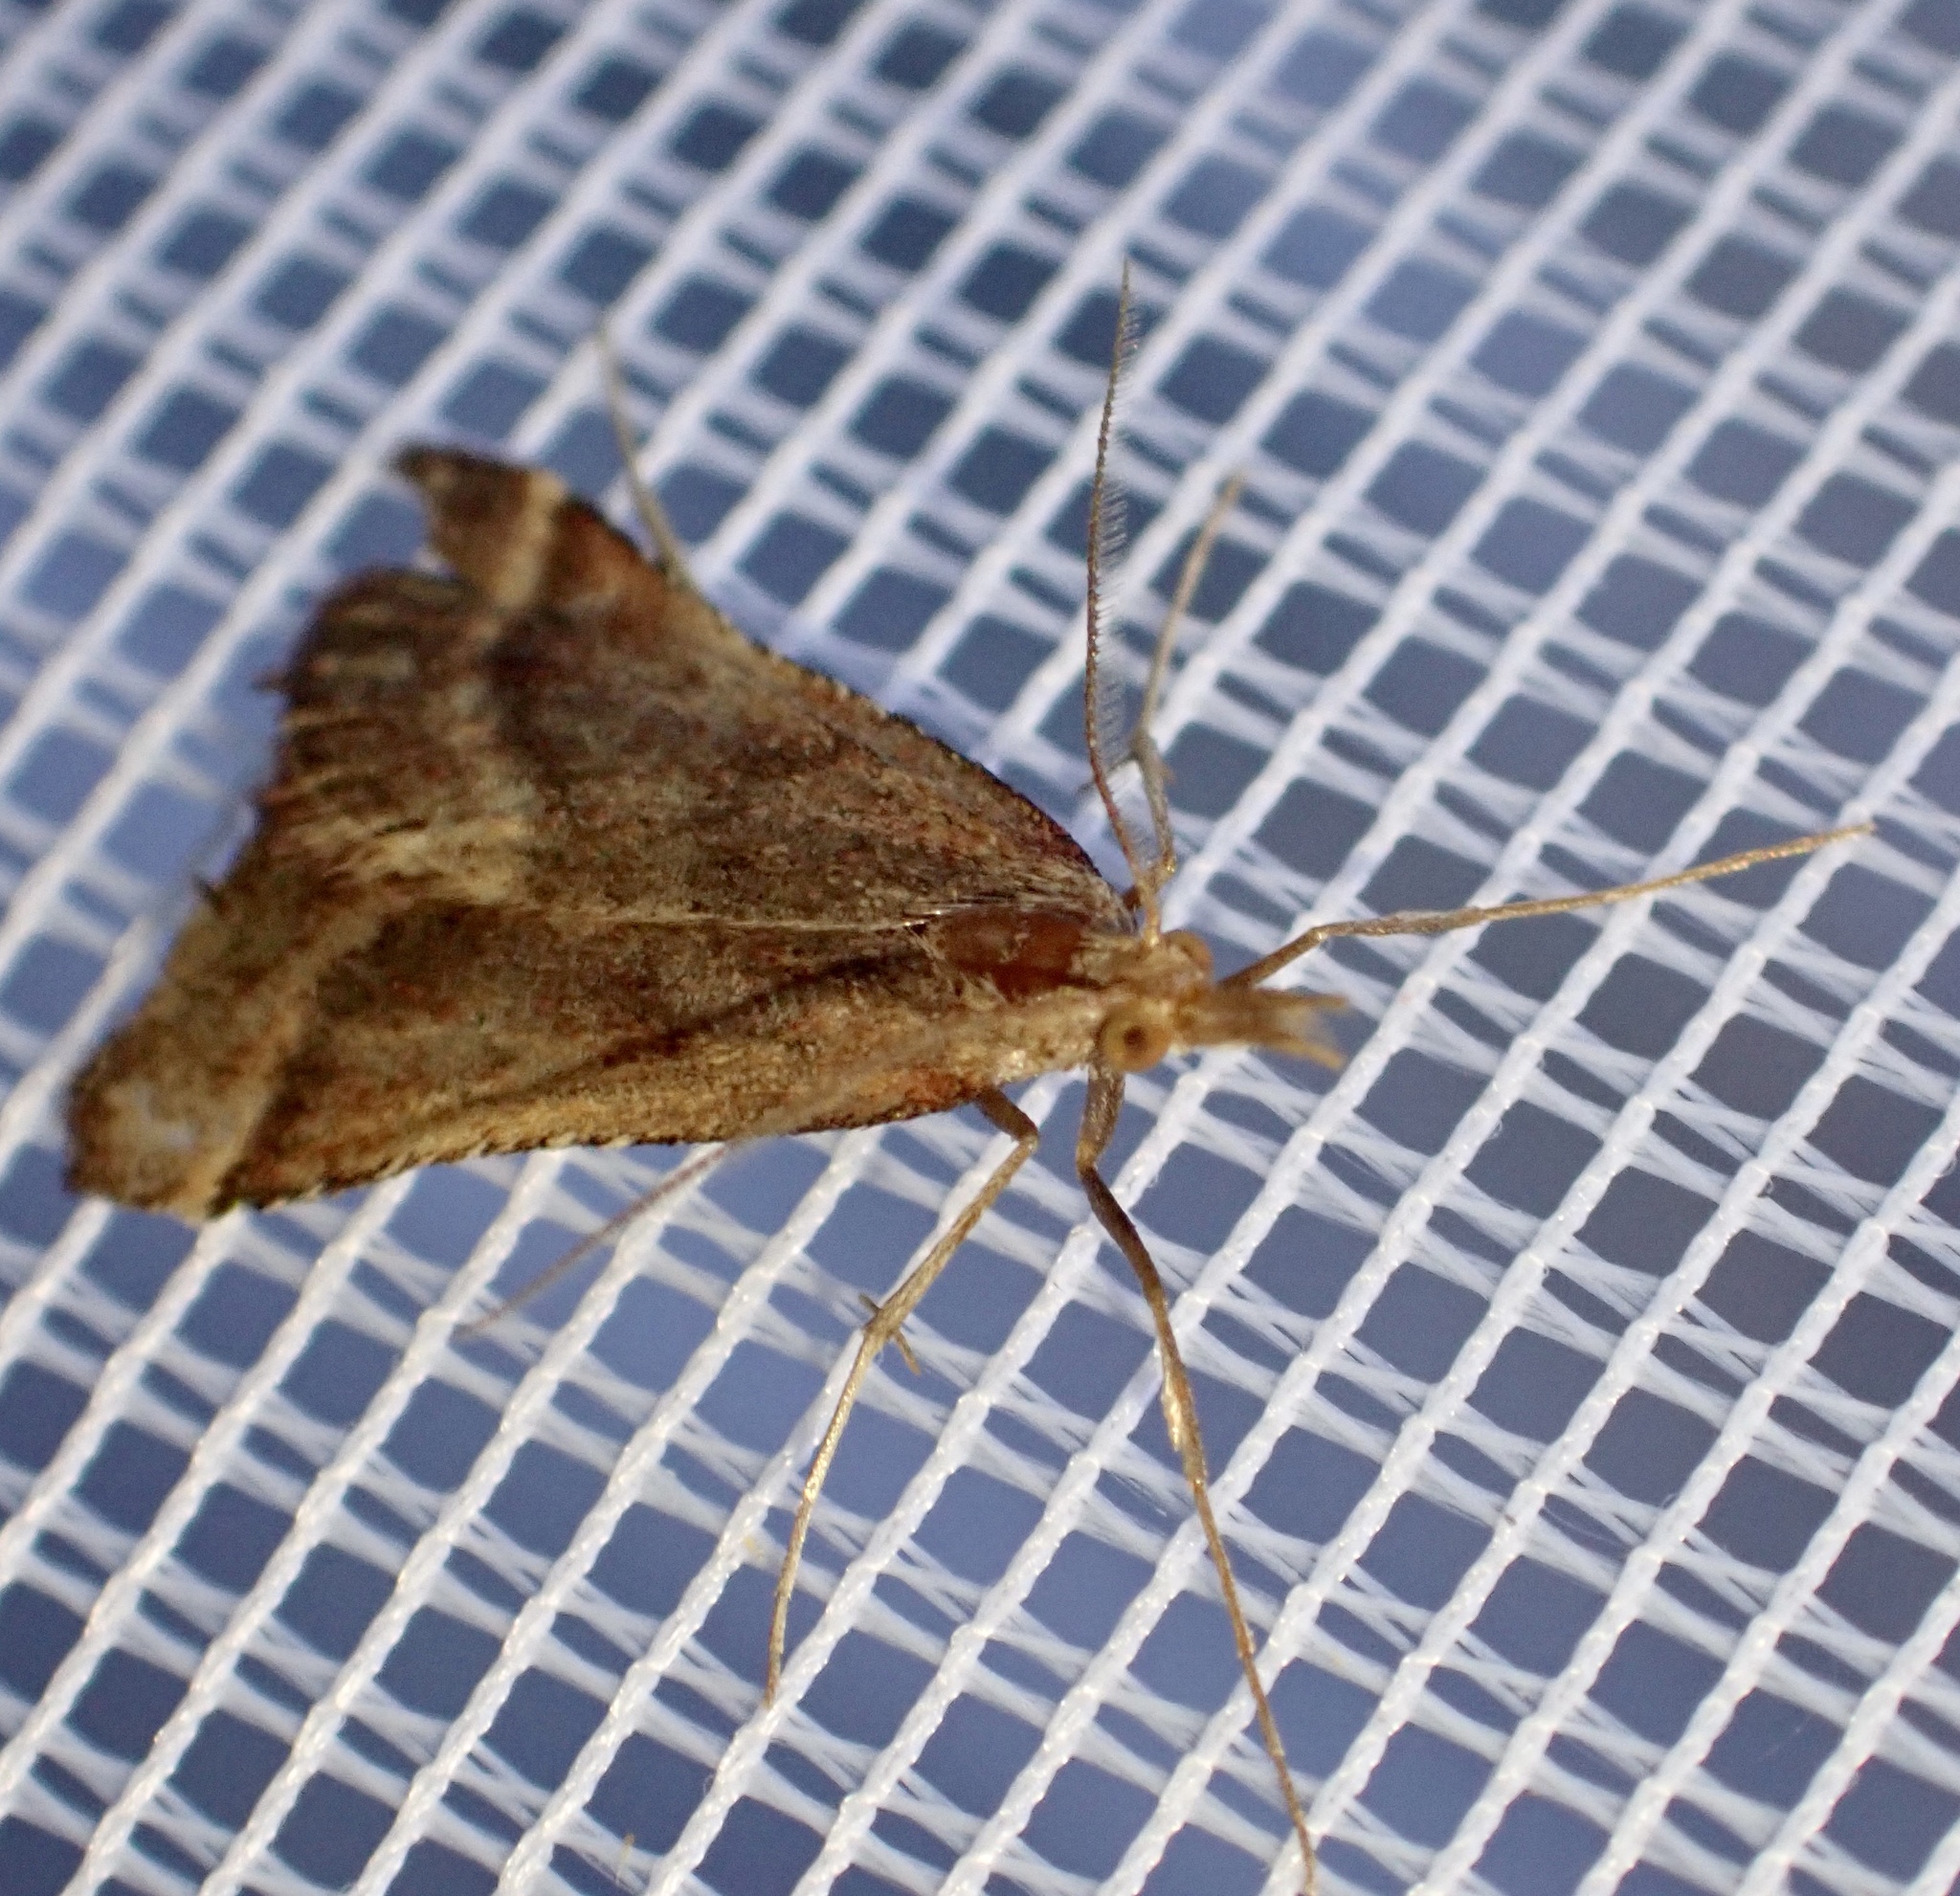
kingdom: Animalia
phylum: Arthropoda
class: Insecta
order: Lepidoptera
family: Pyralidae
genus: Synaphe
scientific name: Synaphe punctalis
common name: Long-legged tabby
